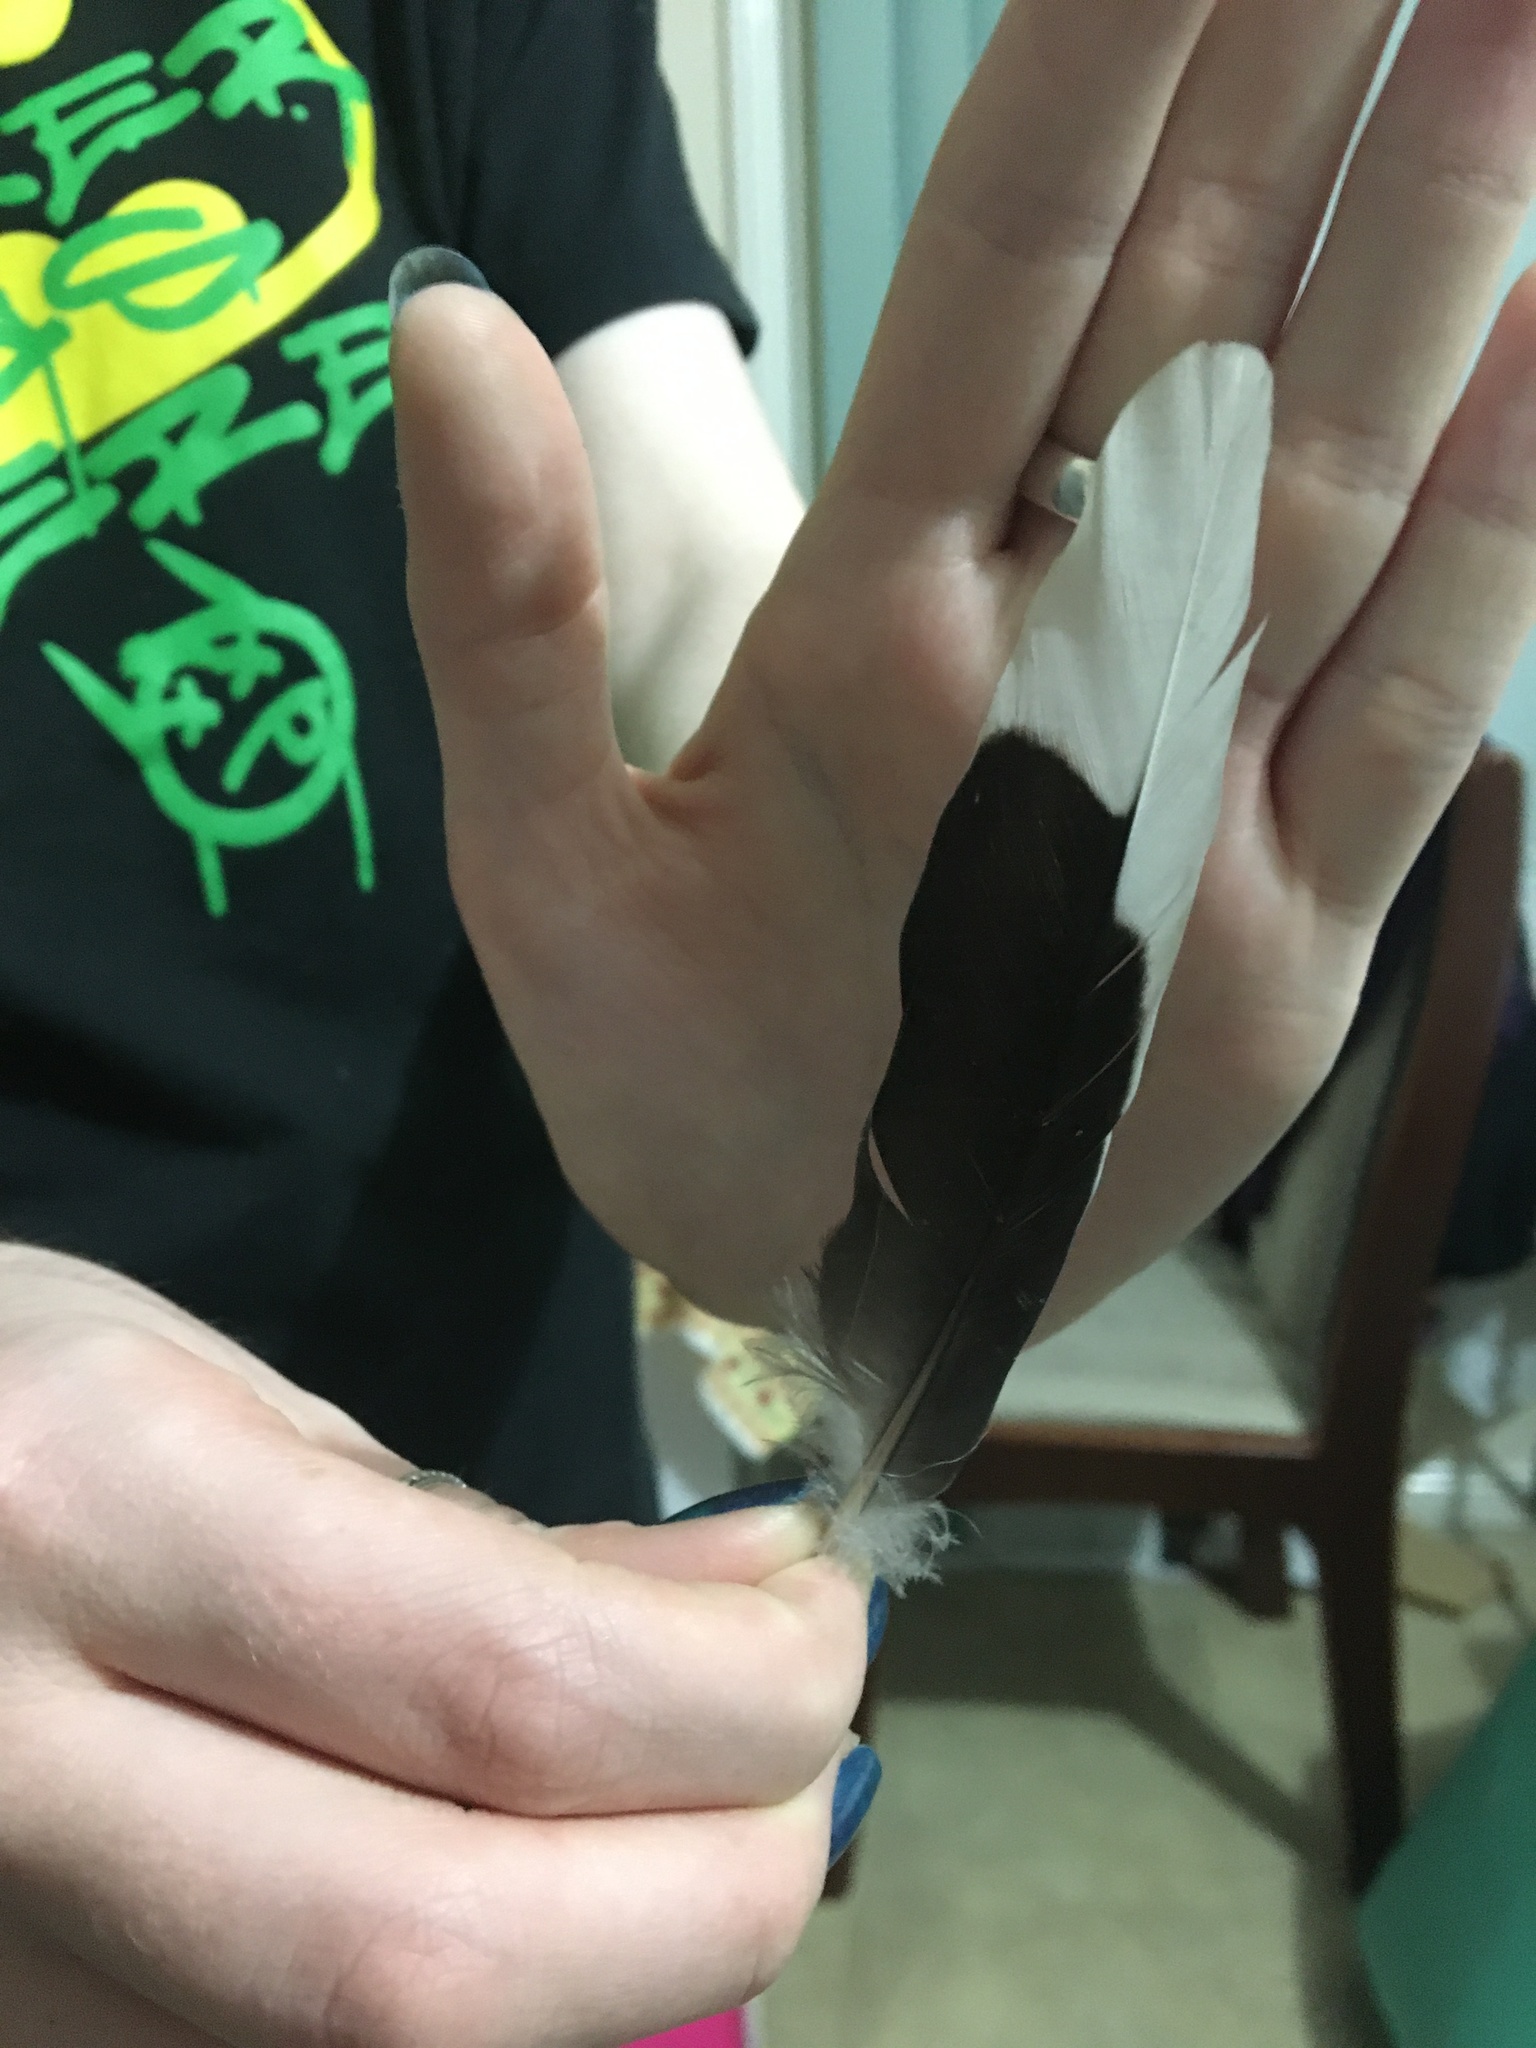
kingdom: Animalia
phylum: Chordata
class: Aves
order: Columbiformes
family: Columbidae
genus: Spilopelia
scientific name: Spilopelia chinensis
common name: Spotted dove
